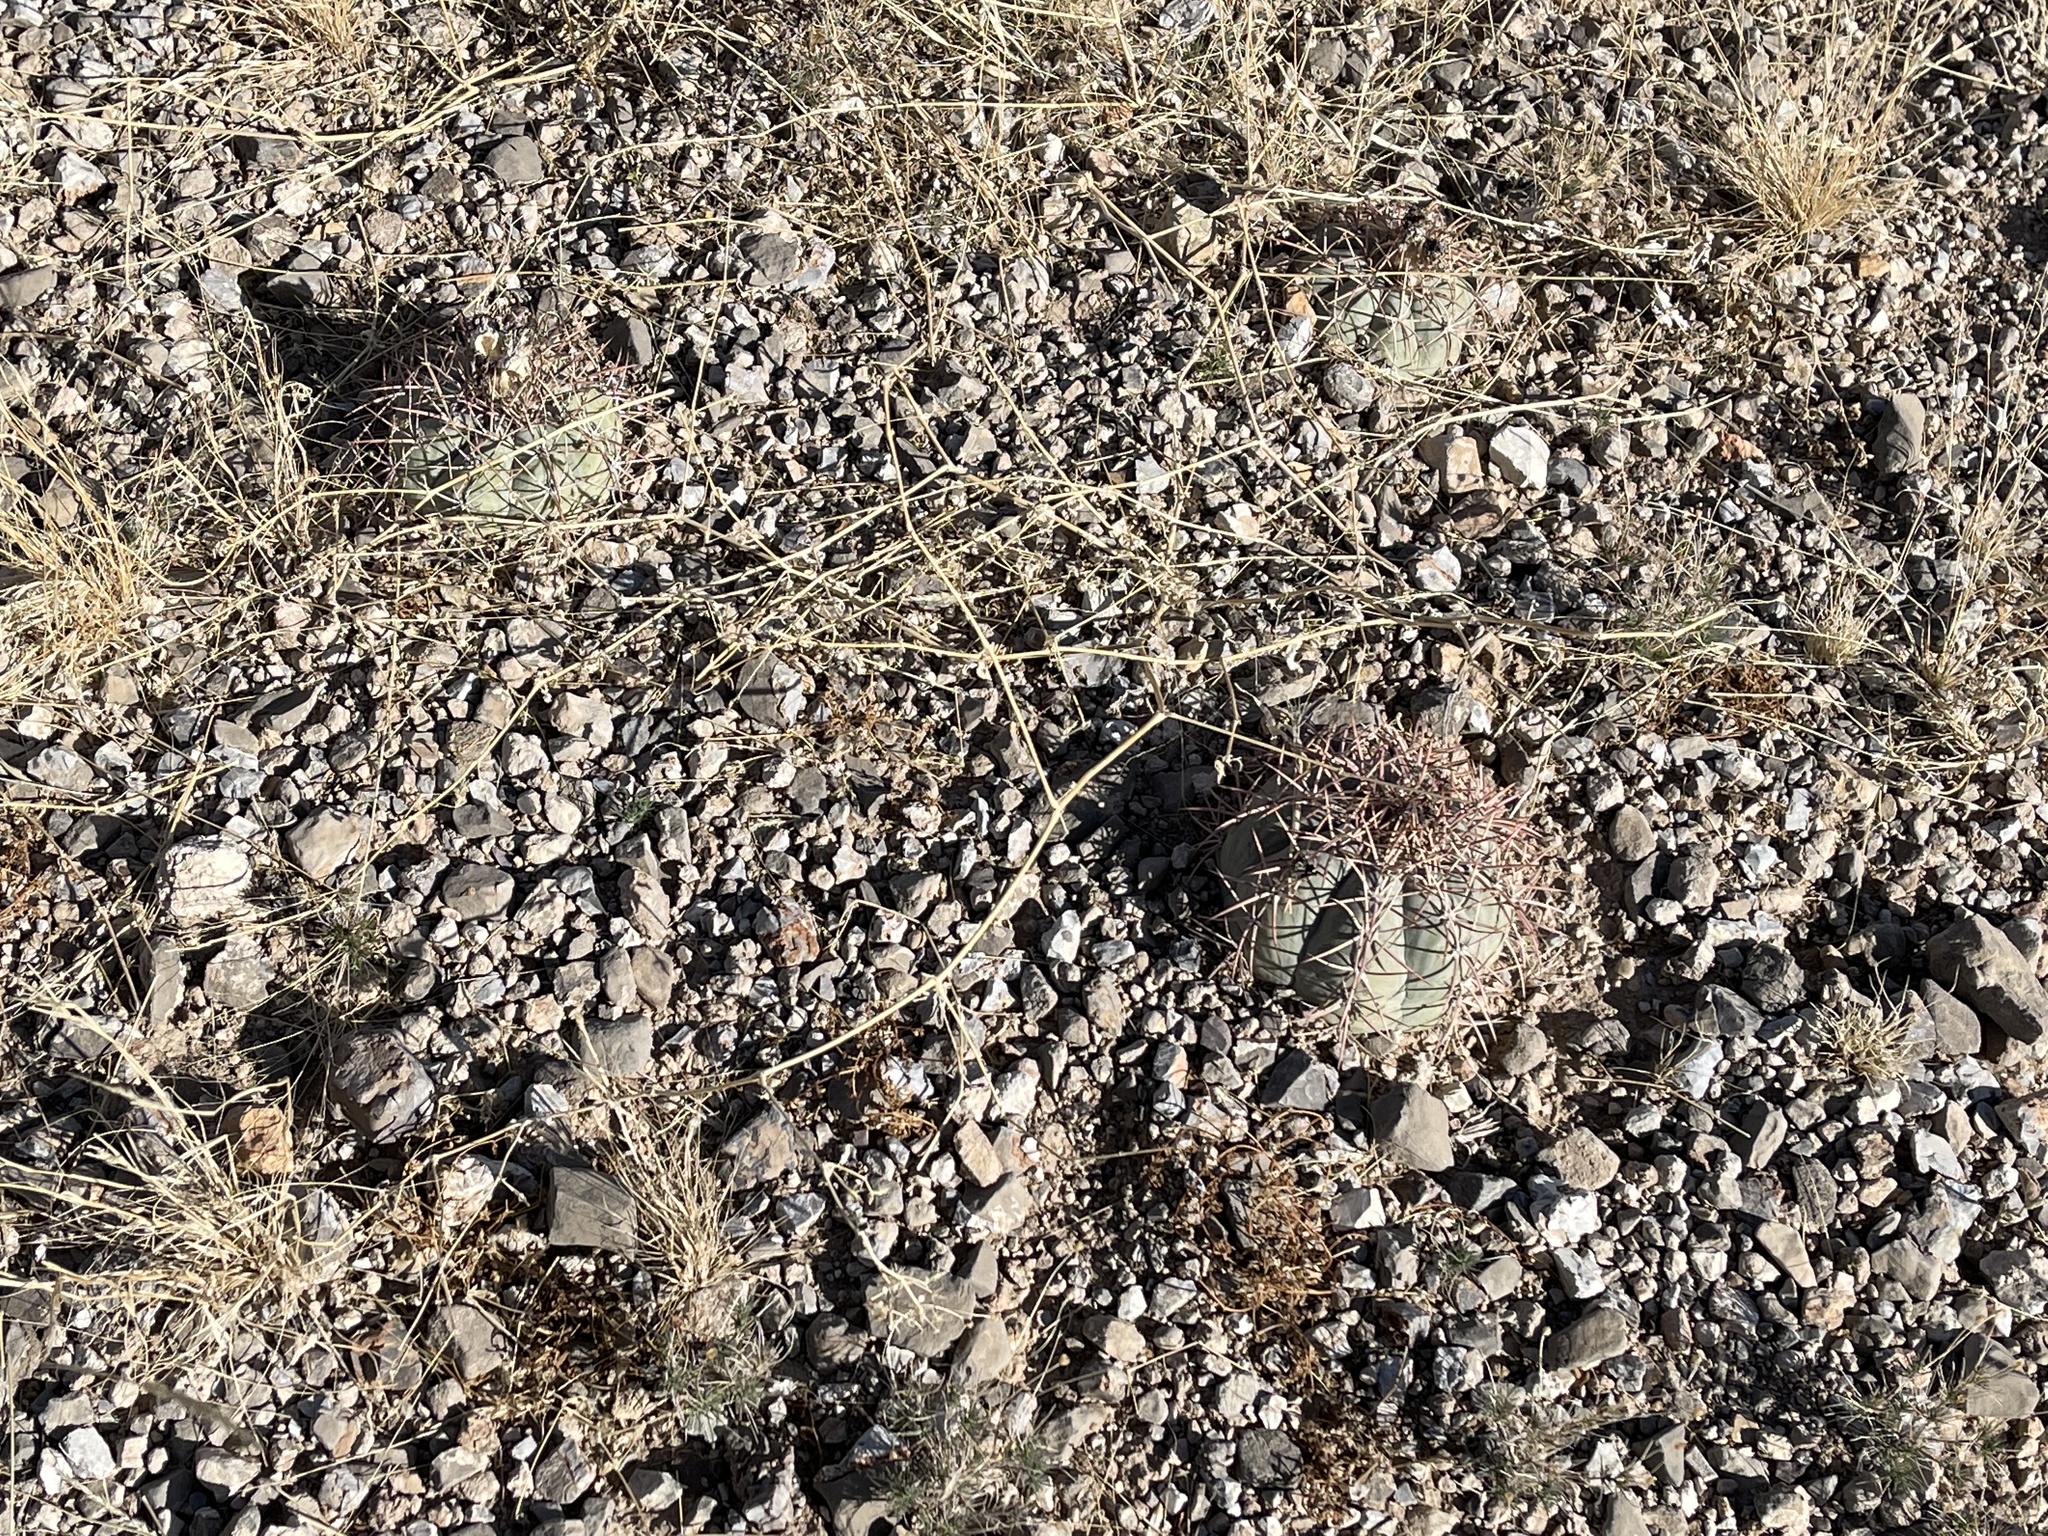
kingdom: Plantae
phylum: Tracheophyta
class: Magnoliopsida
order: Caryophyllales
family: Cactaceae
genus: Echinocactus
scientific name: Echinocactus horizonthalonius
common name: Devilshead
